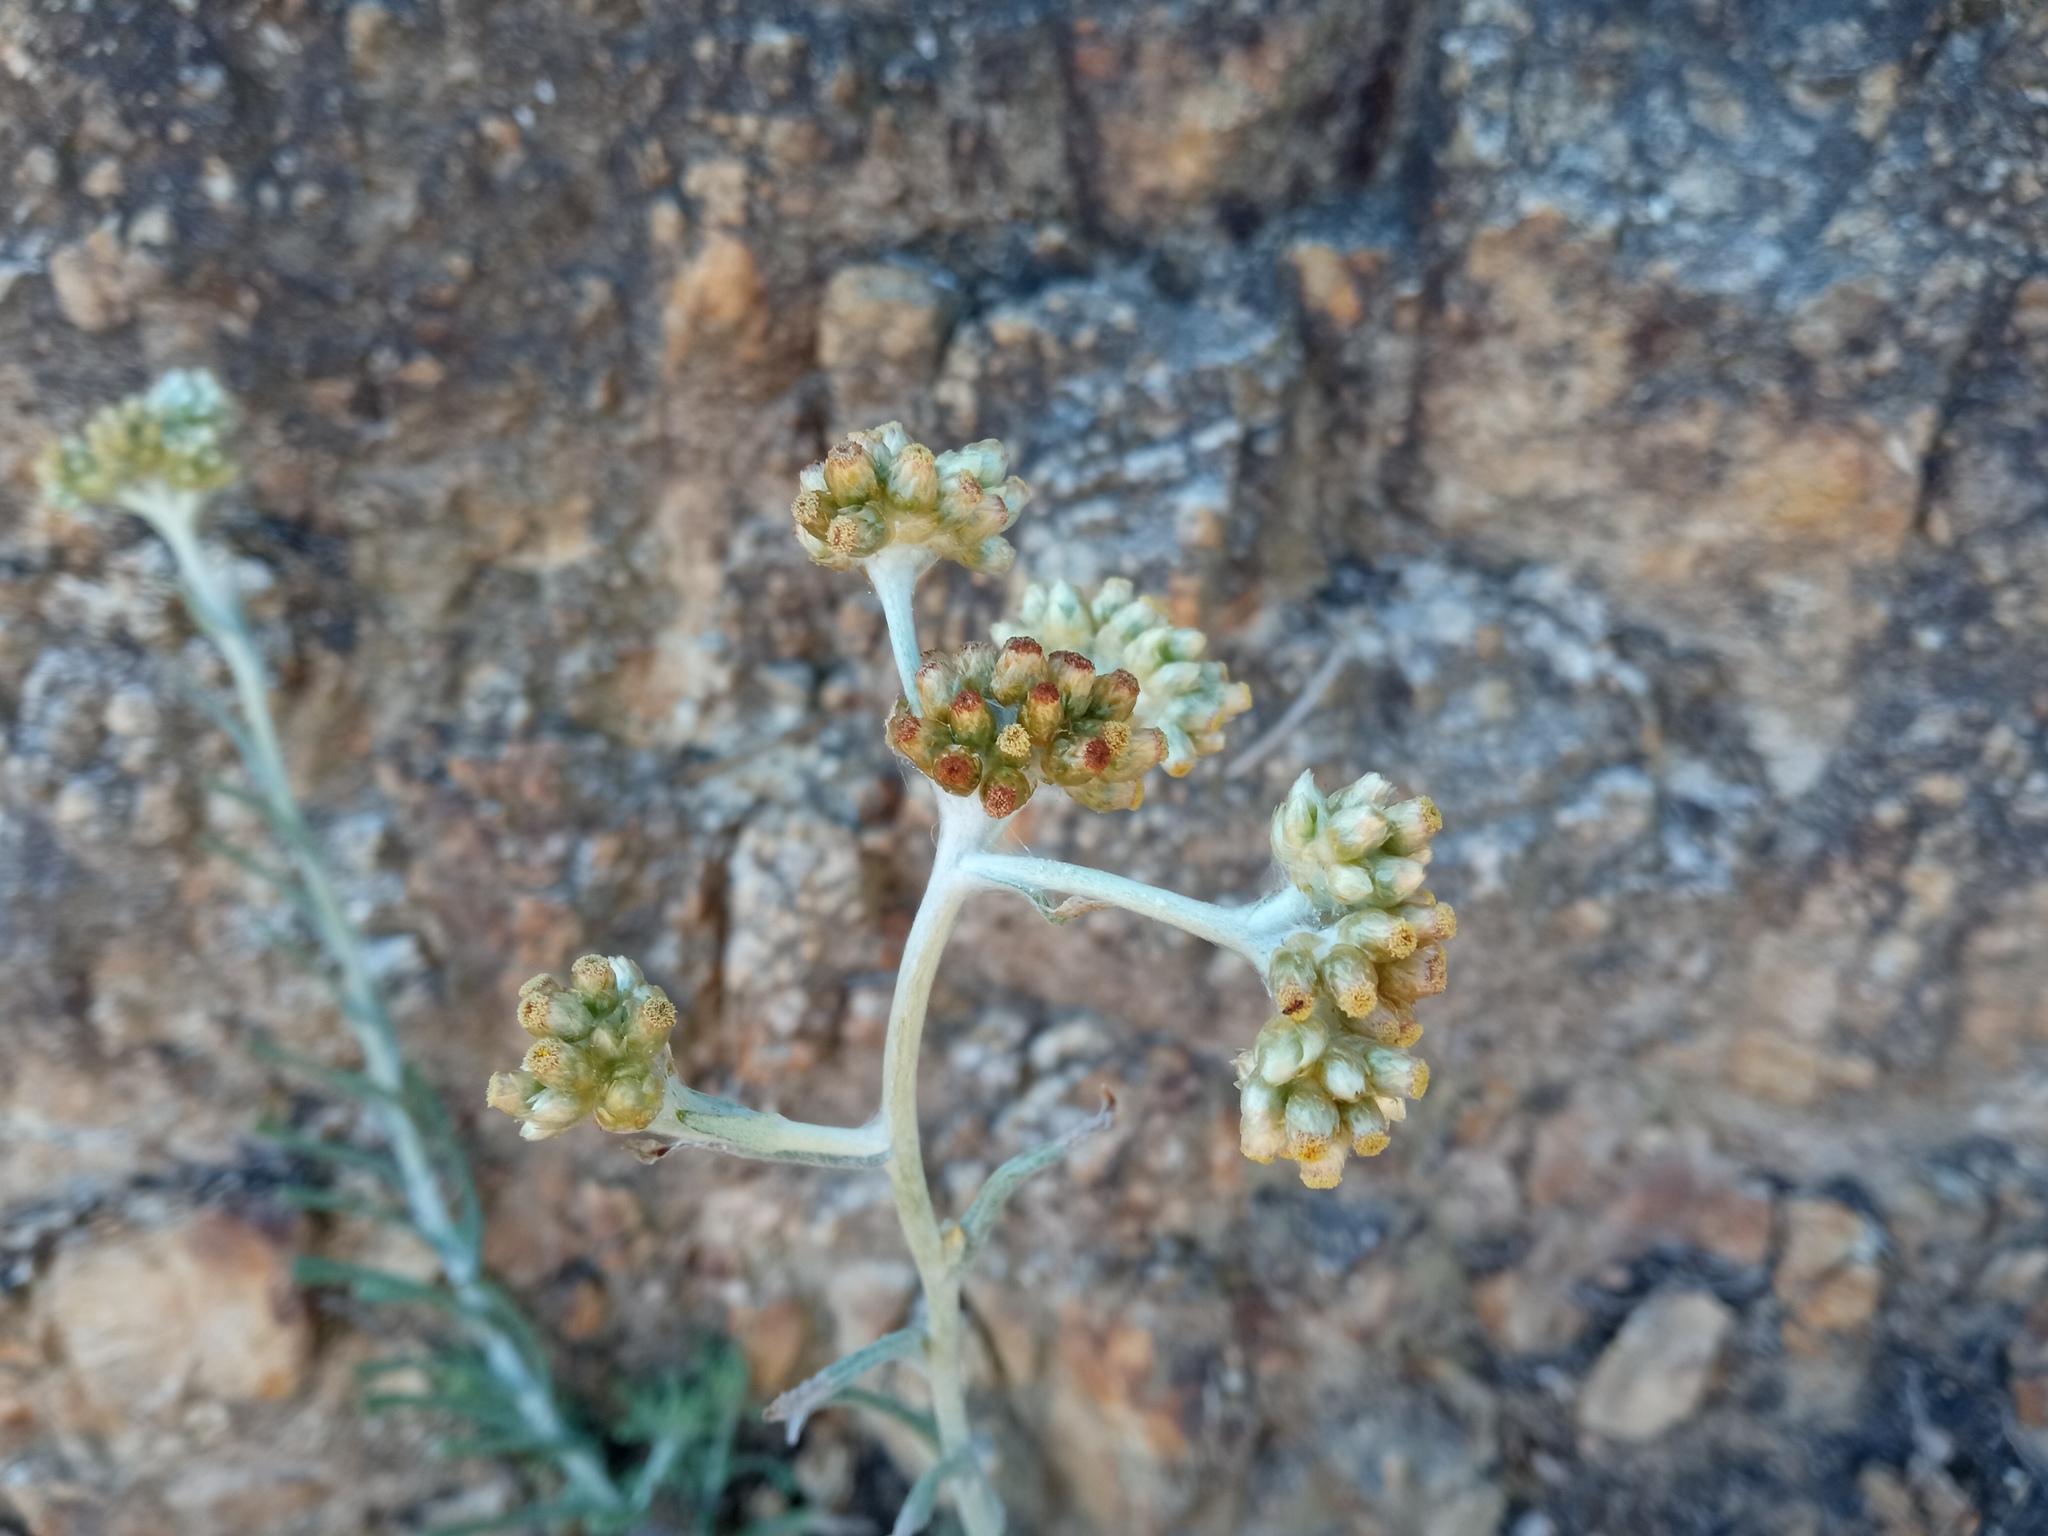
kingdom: Plantae
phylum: Tracheophyta
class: Magnoliopsida
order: Asterales
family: Asteraceae
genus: Helichrysum
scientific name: Helichrysum luteoalbum
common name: Daisy
